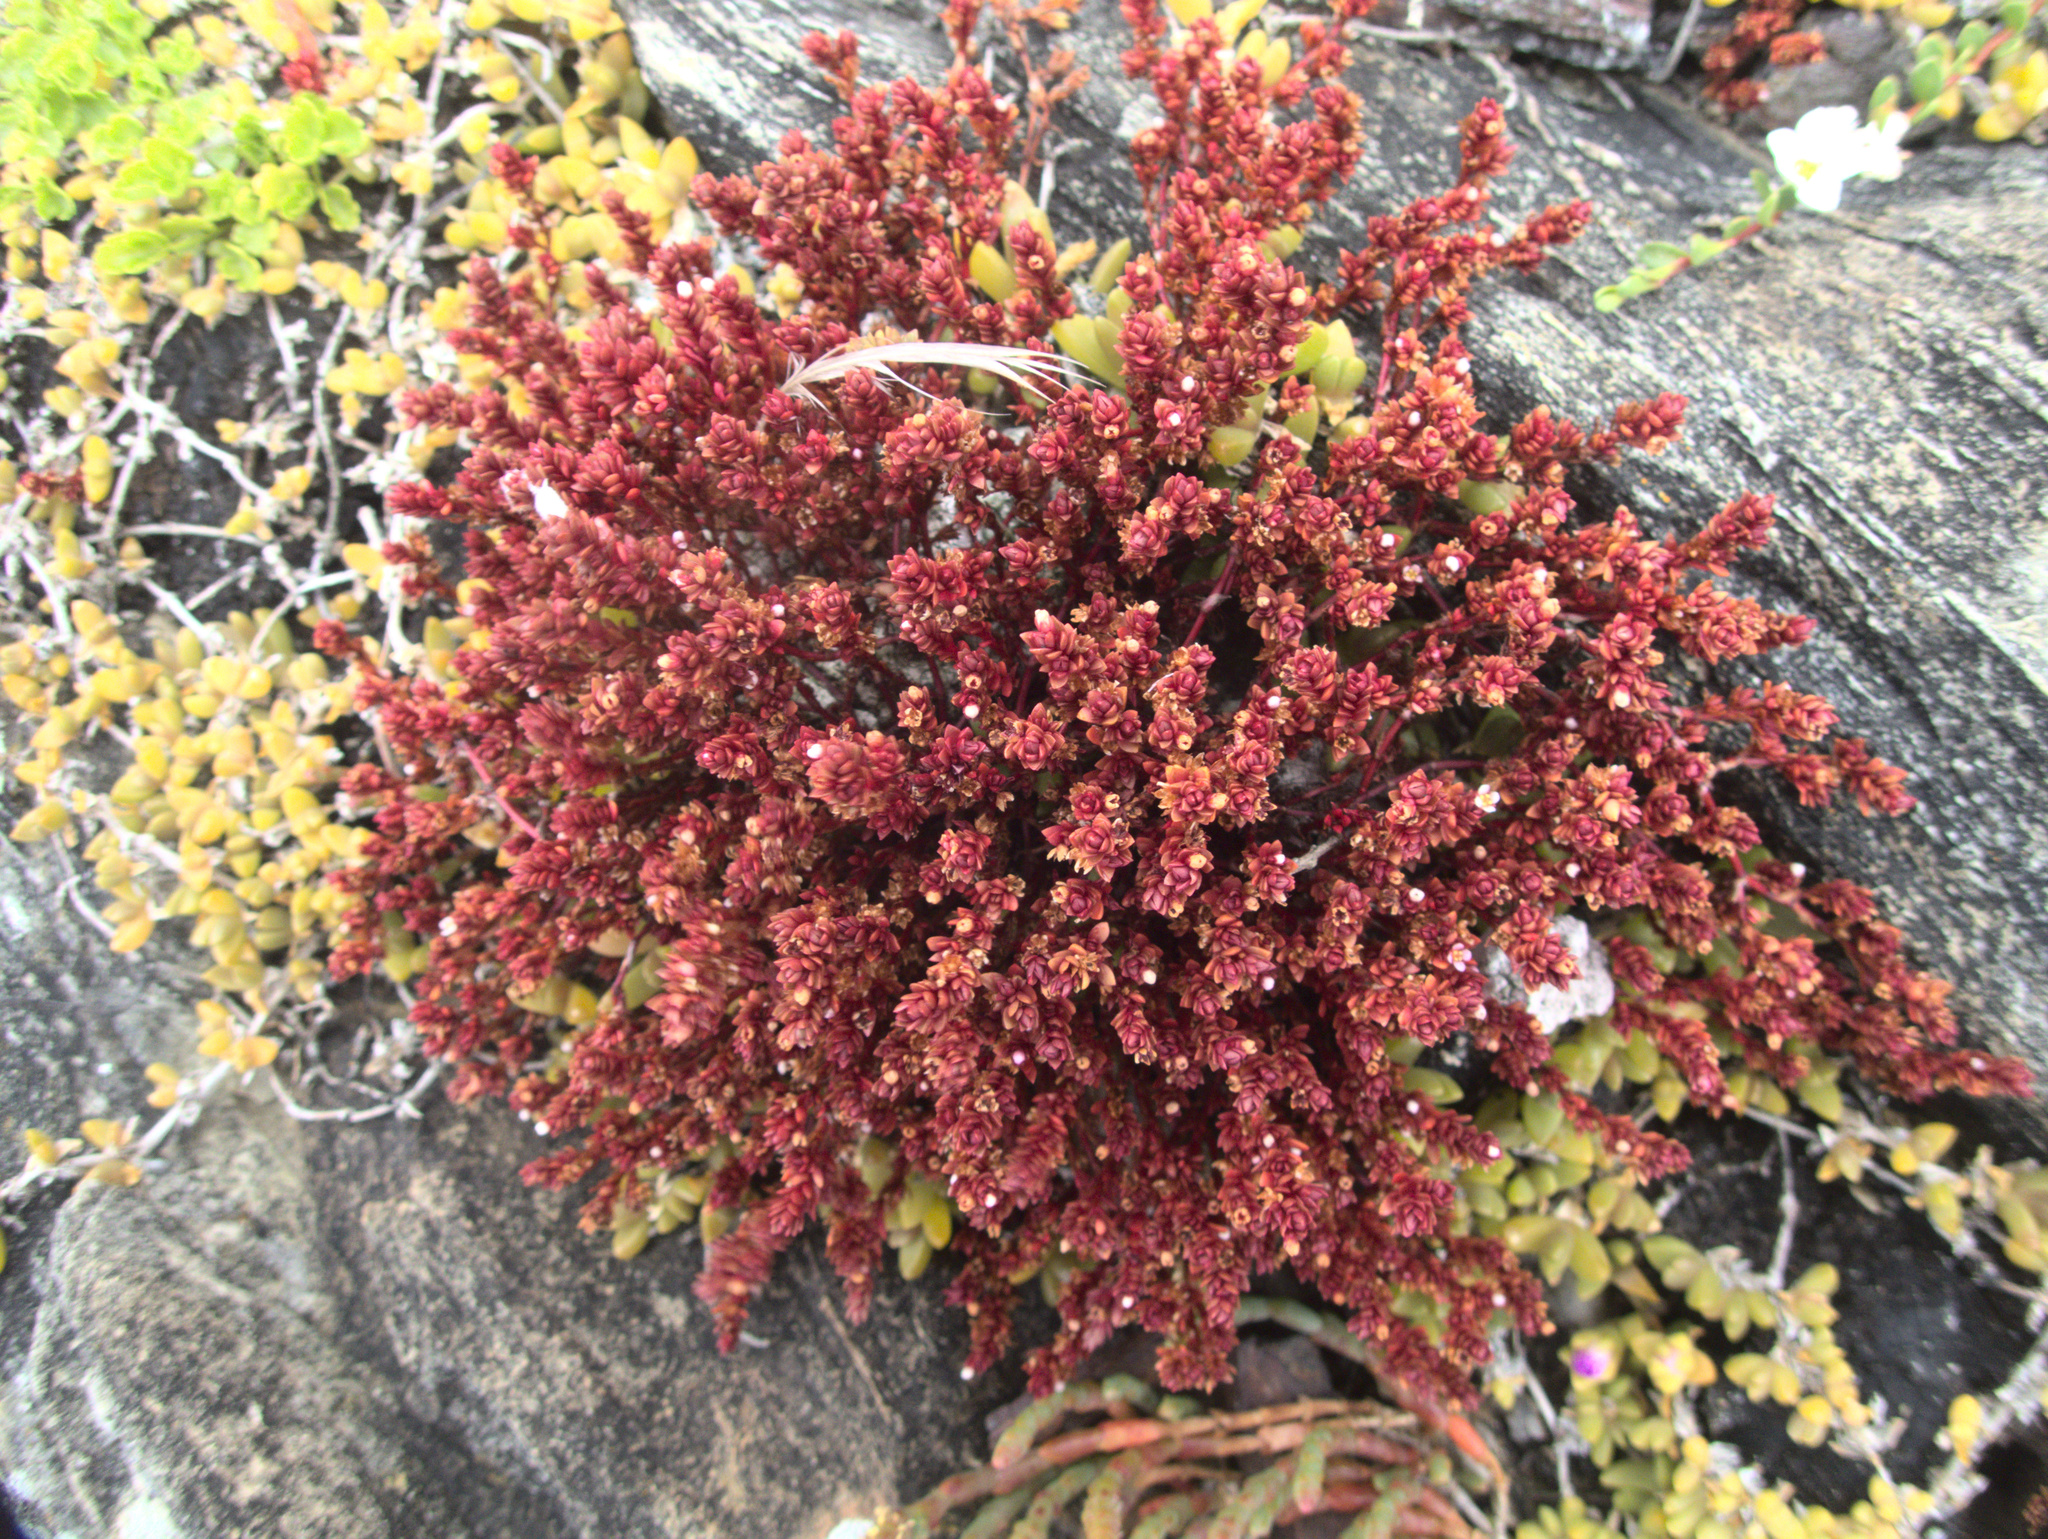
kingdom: Plantae
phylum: Tracheophyta
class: Magnoliopsida
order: Saxifragales
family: Crassulaceae
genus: Crassula
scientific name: Crassula moschata
